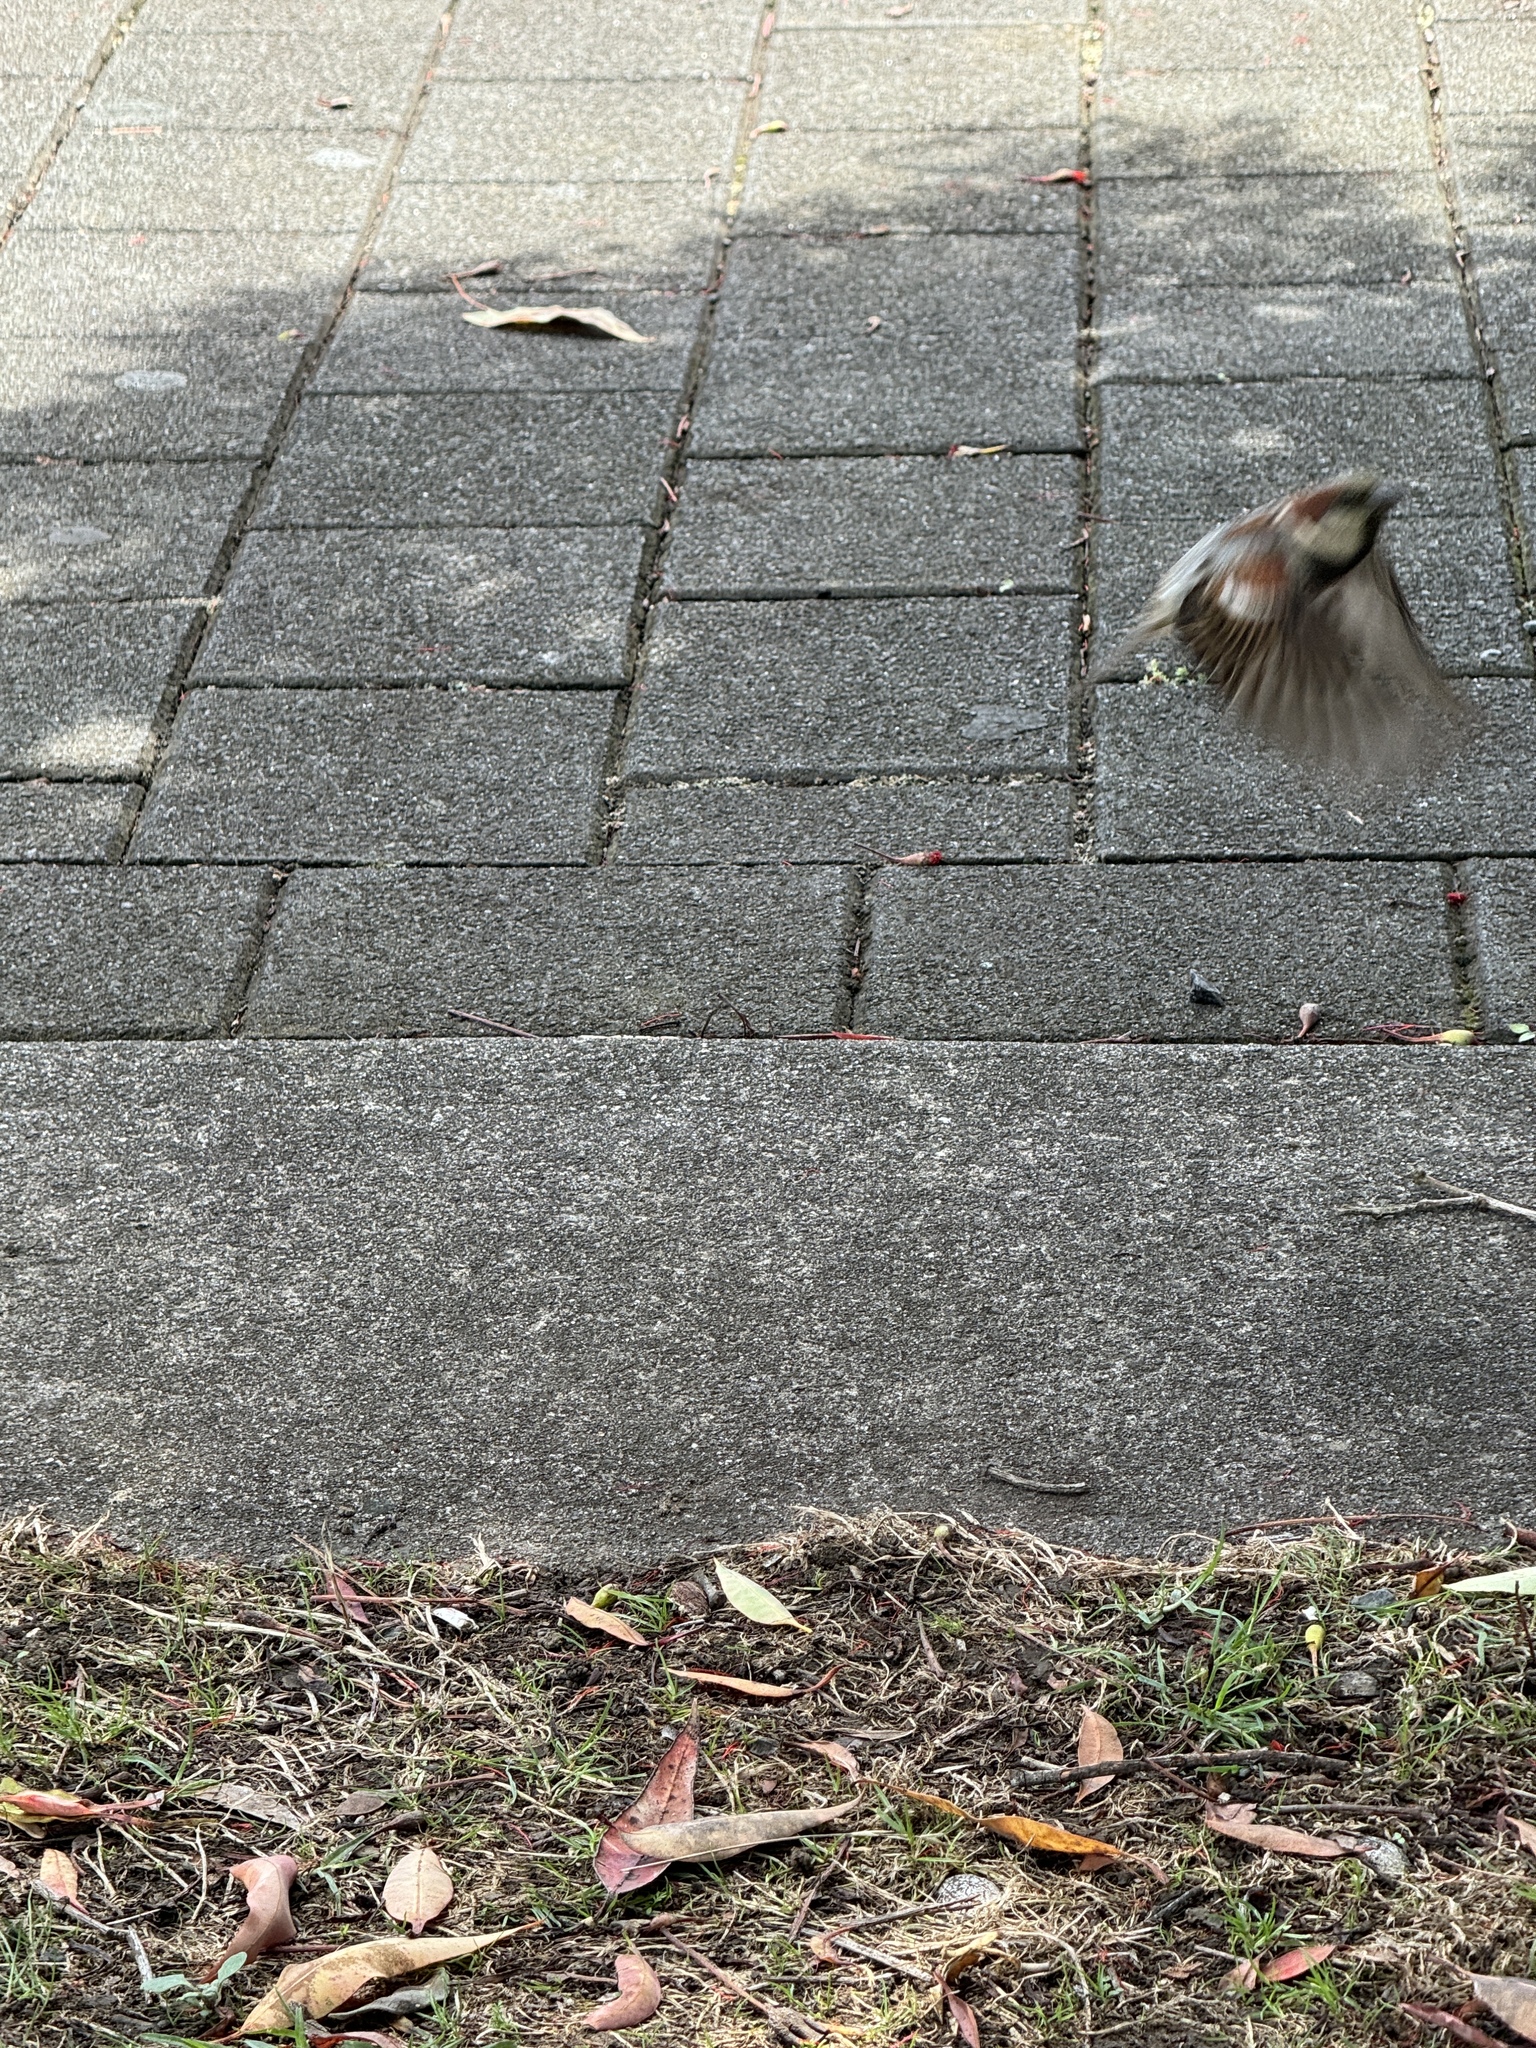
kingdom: Animalia
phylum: Chordata
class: Aves
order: Passeriformes
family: Passeridae
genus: Passer
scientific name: Passer domesticus
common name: House sparrow
